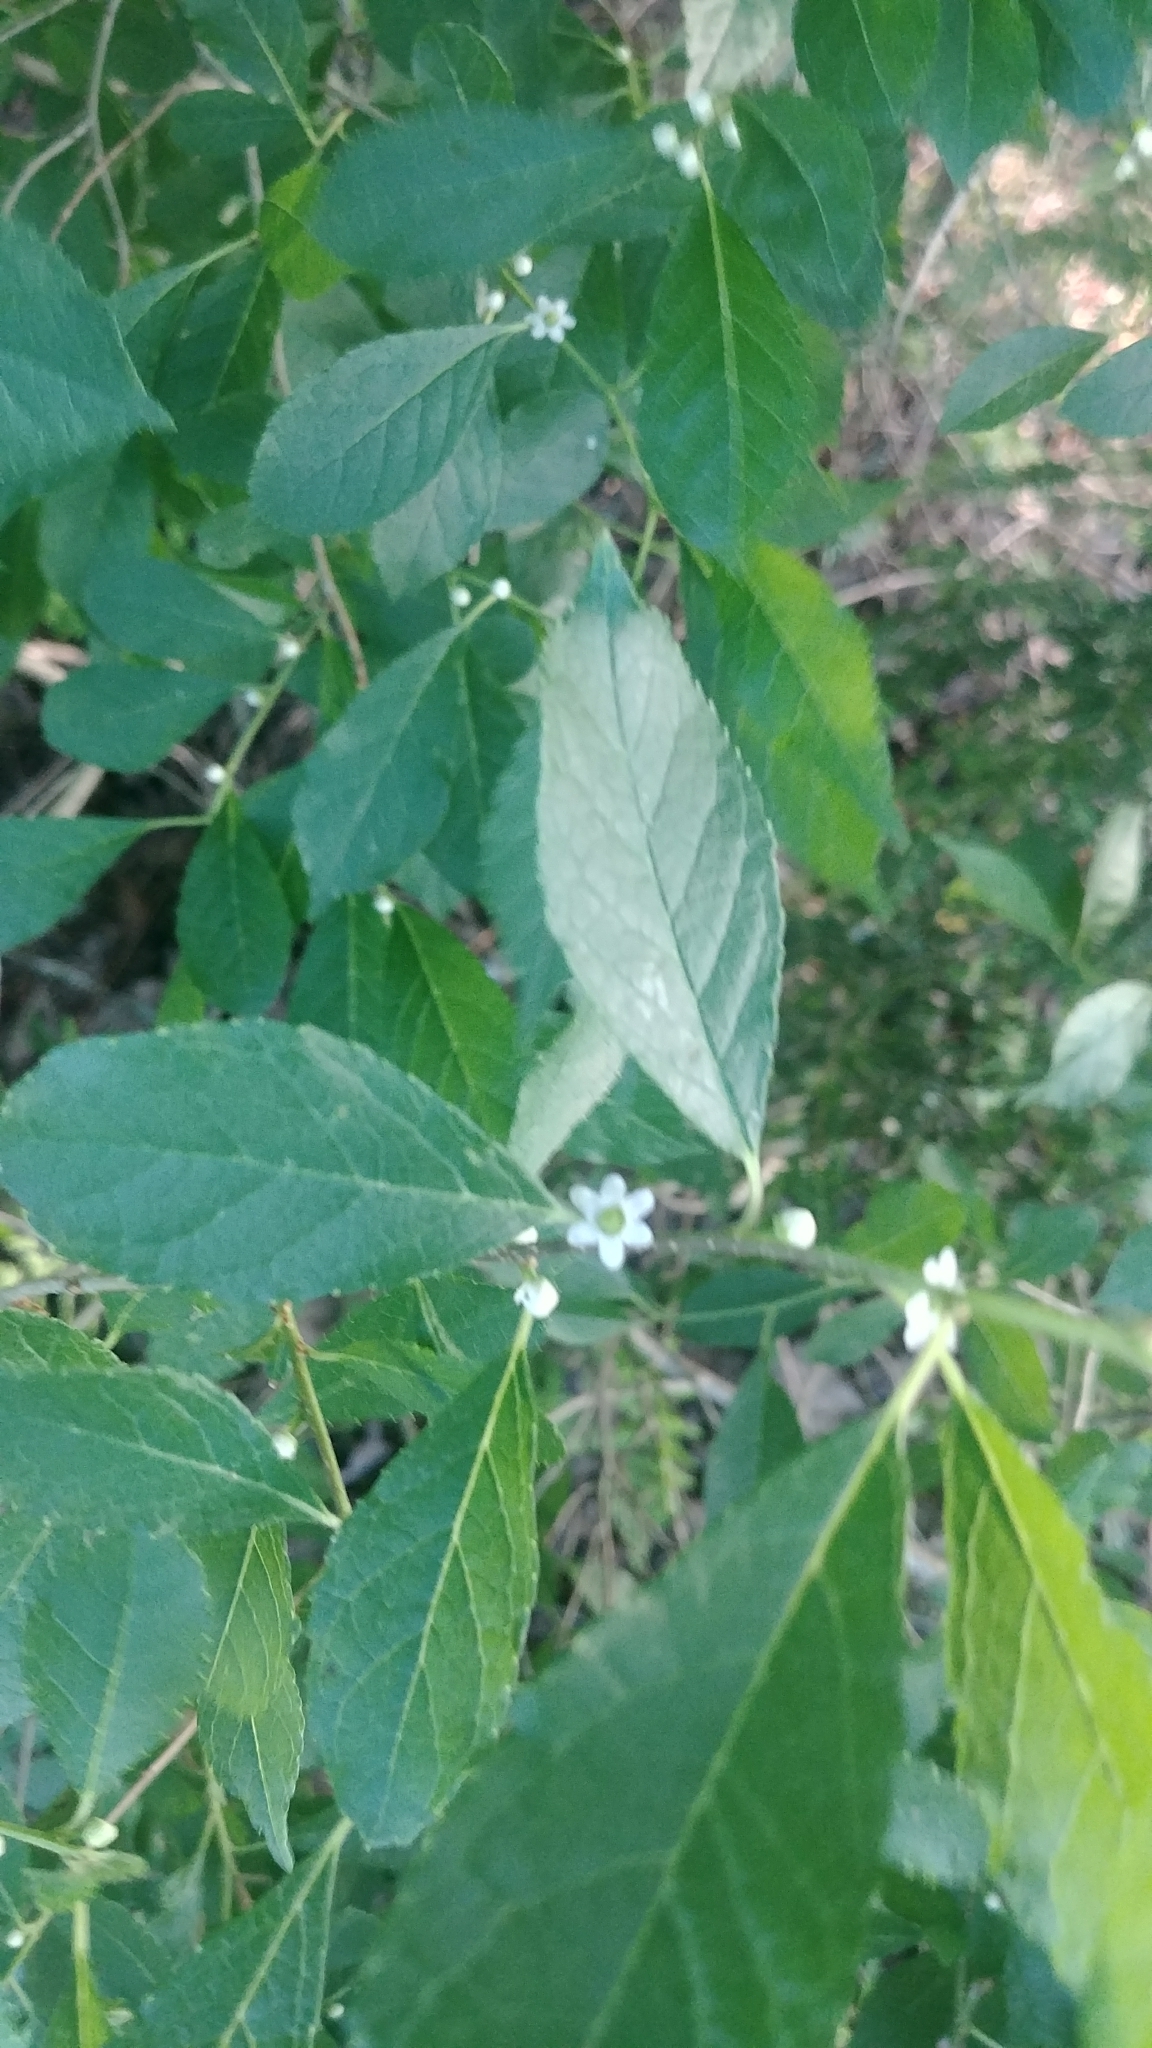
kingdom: Plantae
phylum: Tracheophyta
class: Magnoliopsida
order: Aquifoliales
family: Aquifoliaceae
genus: Ilex
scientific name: Ilex verticillata
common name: Virginia winterberry
